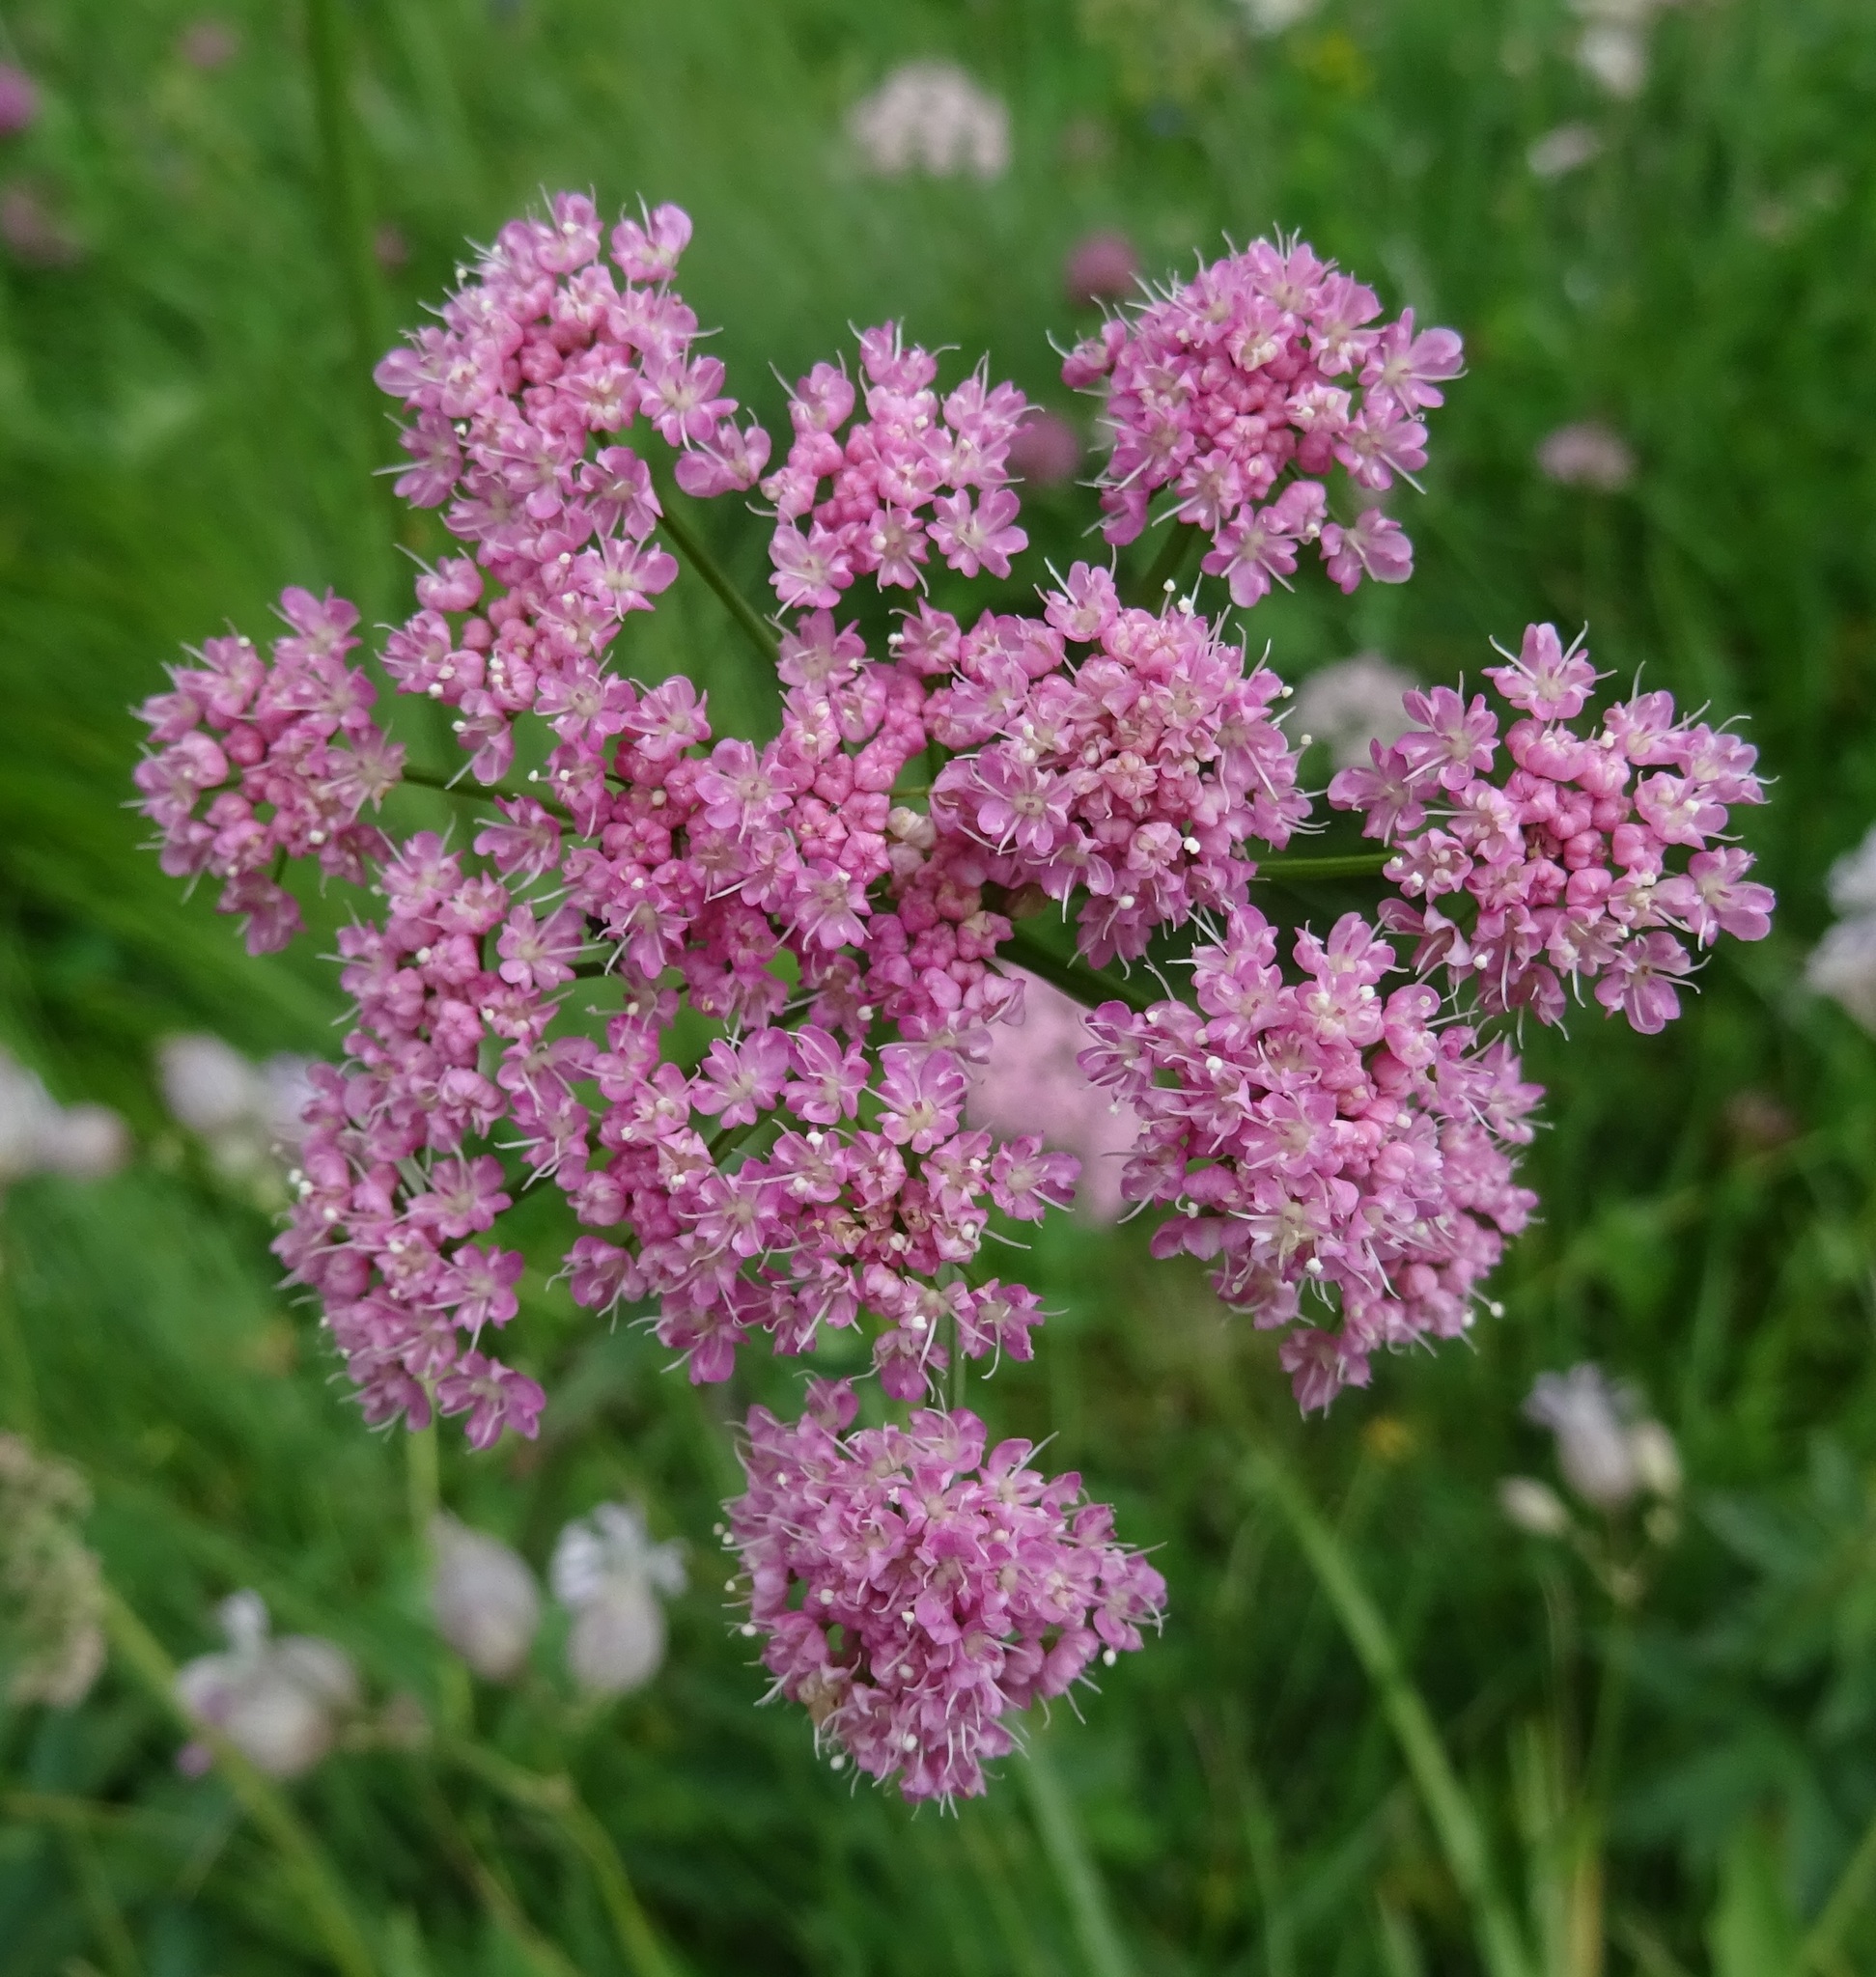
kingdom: Plantae
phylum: Tracheophyta
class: Magnoliopsida
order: Apiales
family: Apiaceae
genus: Pimpinella
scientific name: Pimpinella major
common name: Greater burnet-saxifrage
